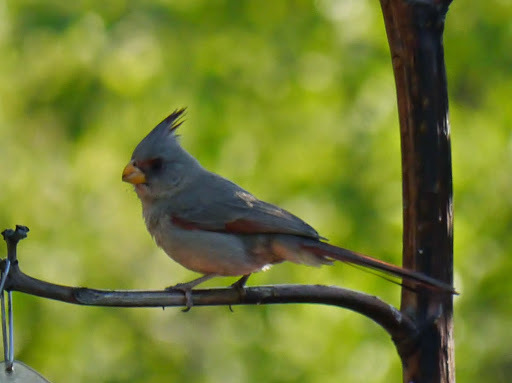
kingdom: Animalia
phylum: Chordata
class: Aves
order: Passeriformes
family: Cardinalidae
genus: Cardinalis
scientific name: Cardinalis sinuatus
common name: Pyrrhuloxia
